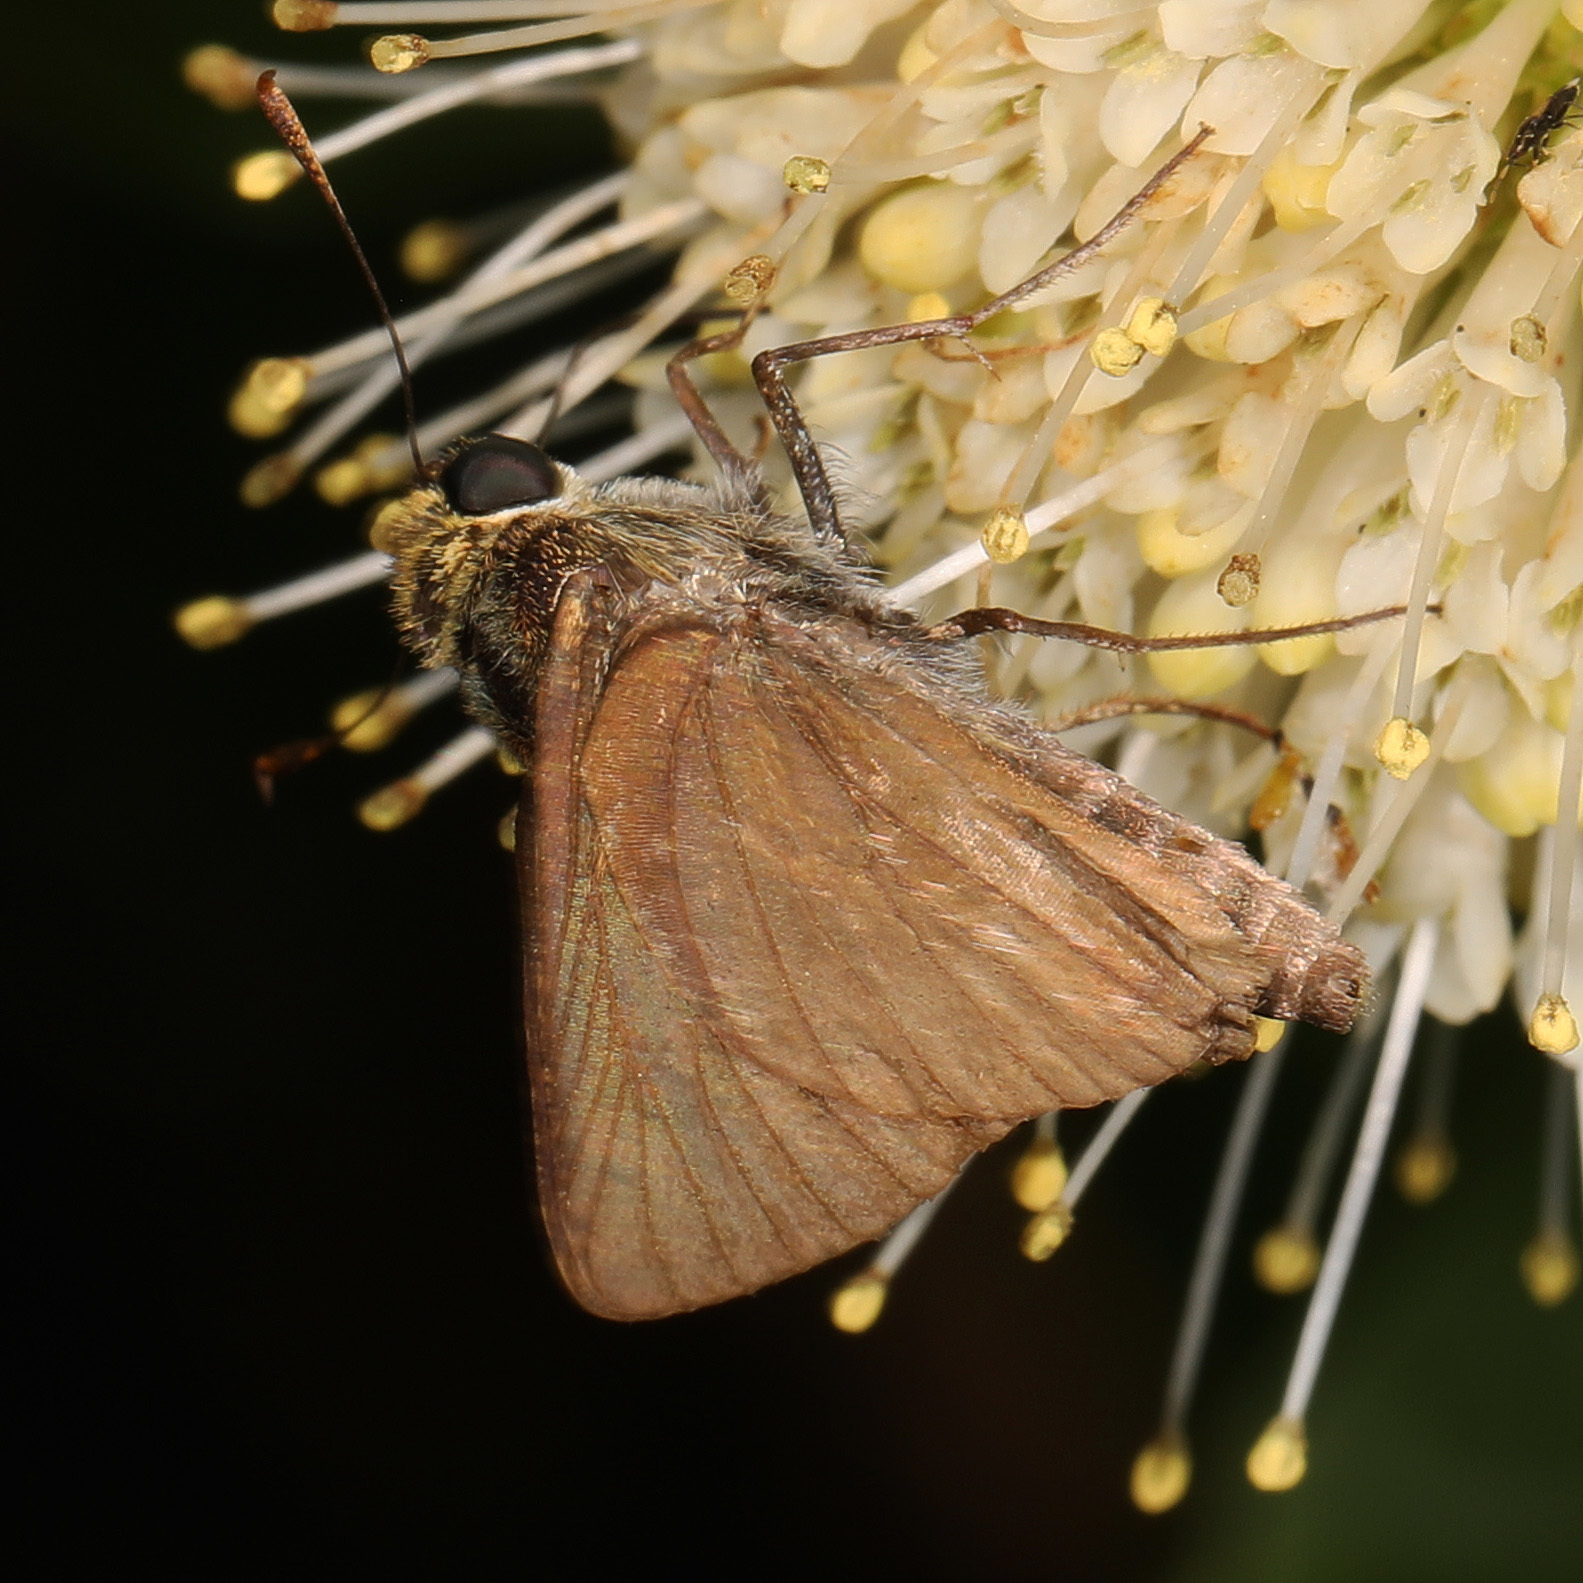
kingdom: Animalia
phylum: Arthropoda
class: Insecta
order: Lepidoptera
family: Hesperiidae
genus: Euphyes
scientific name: Euphyes vestris
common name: Dun skipper
